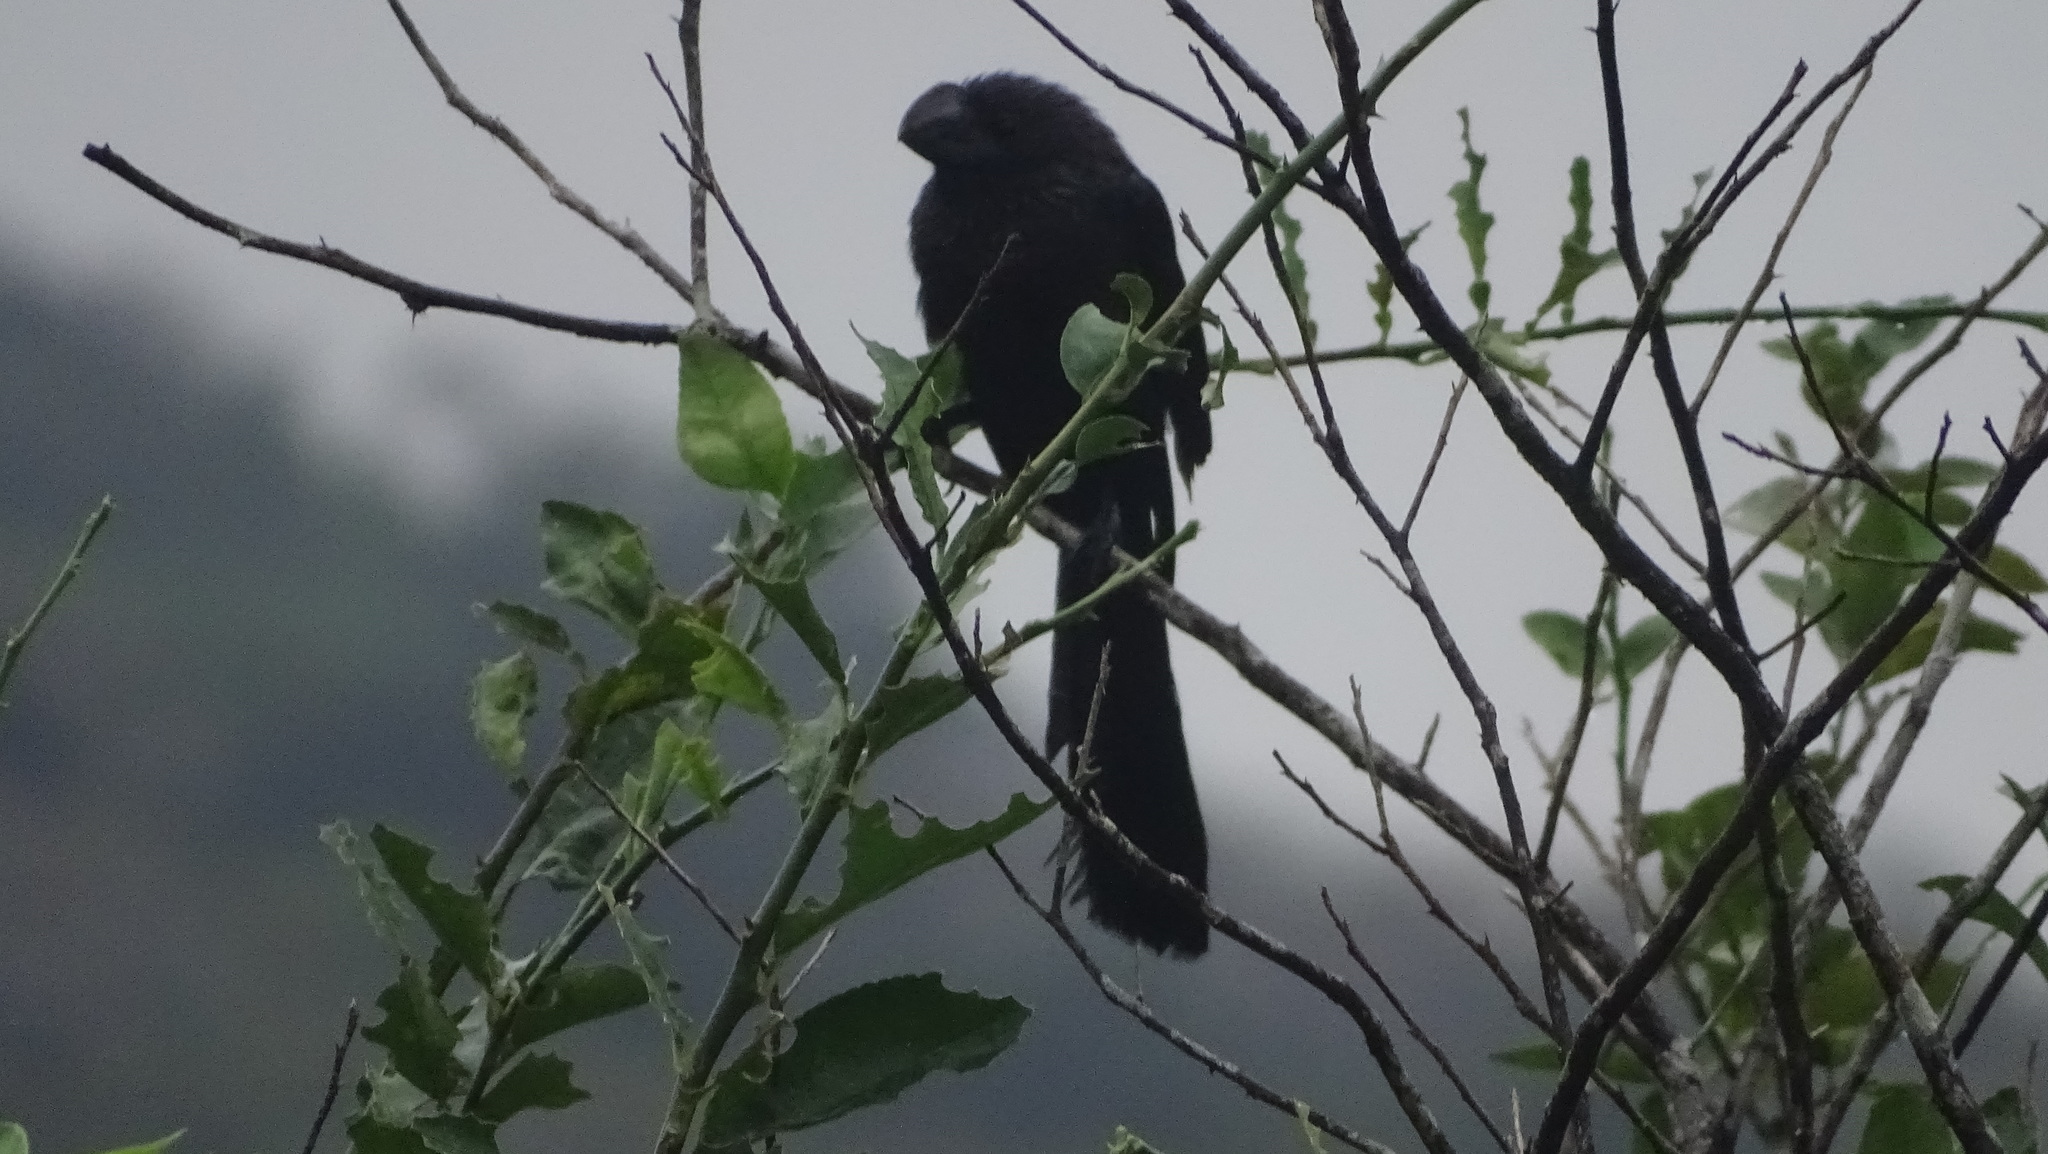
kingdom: Animalia
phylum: Chordata
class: Aves
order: Cuculiformes
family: Cuculidae
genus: Crotophaga
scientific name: Crotophaga ani
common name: Smooth-billed ani
